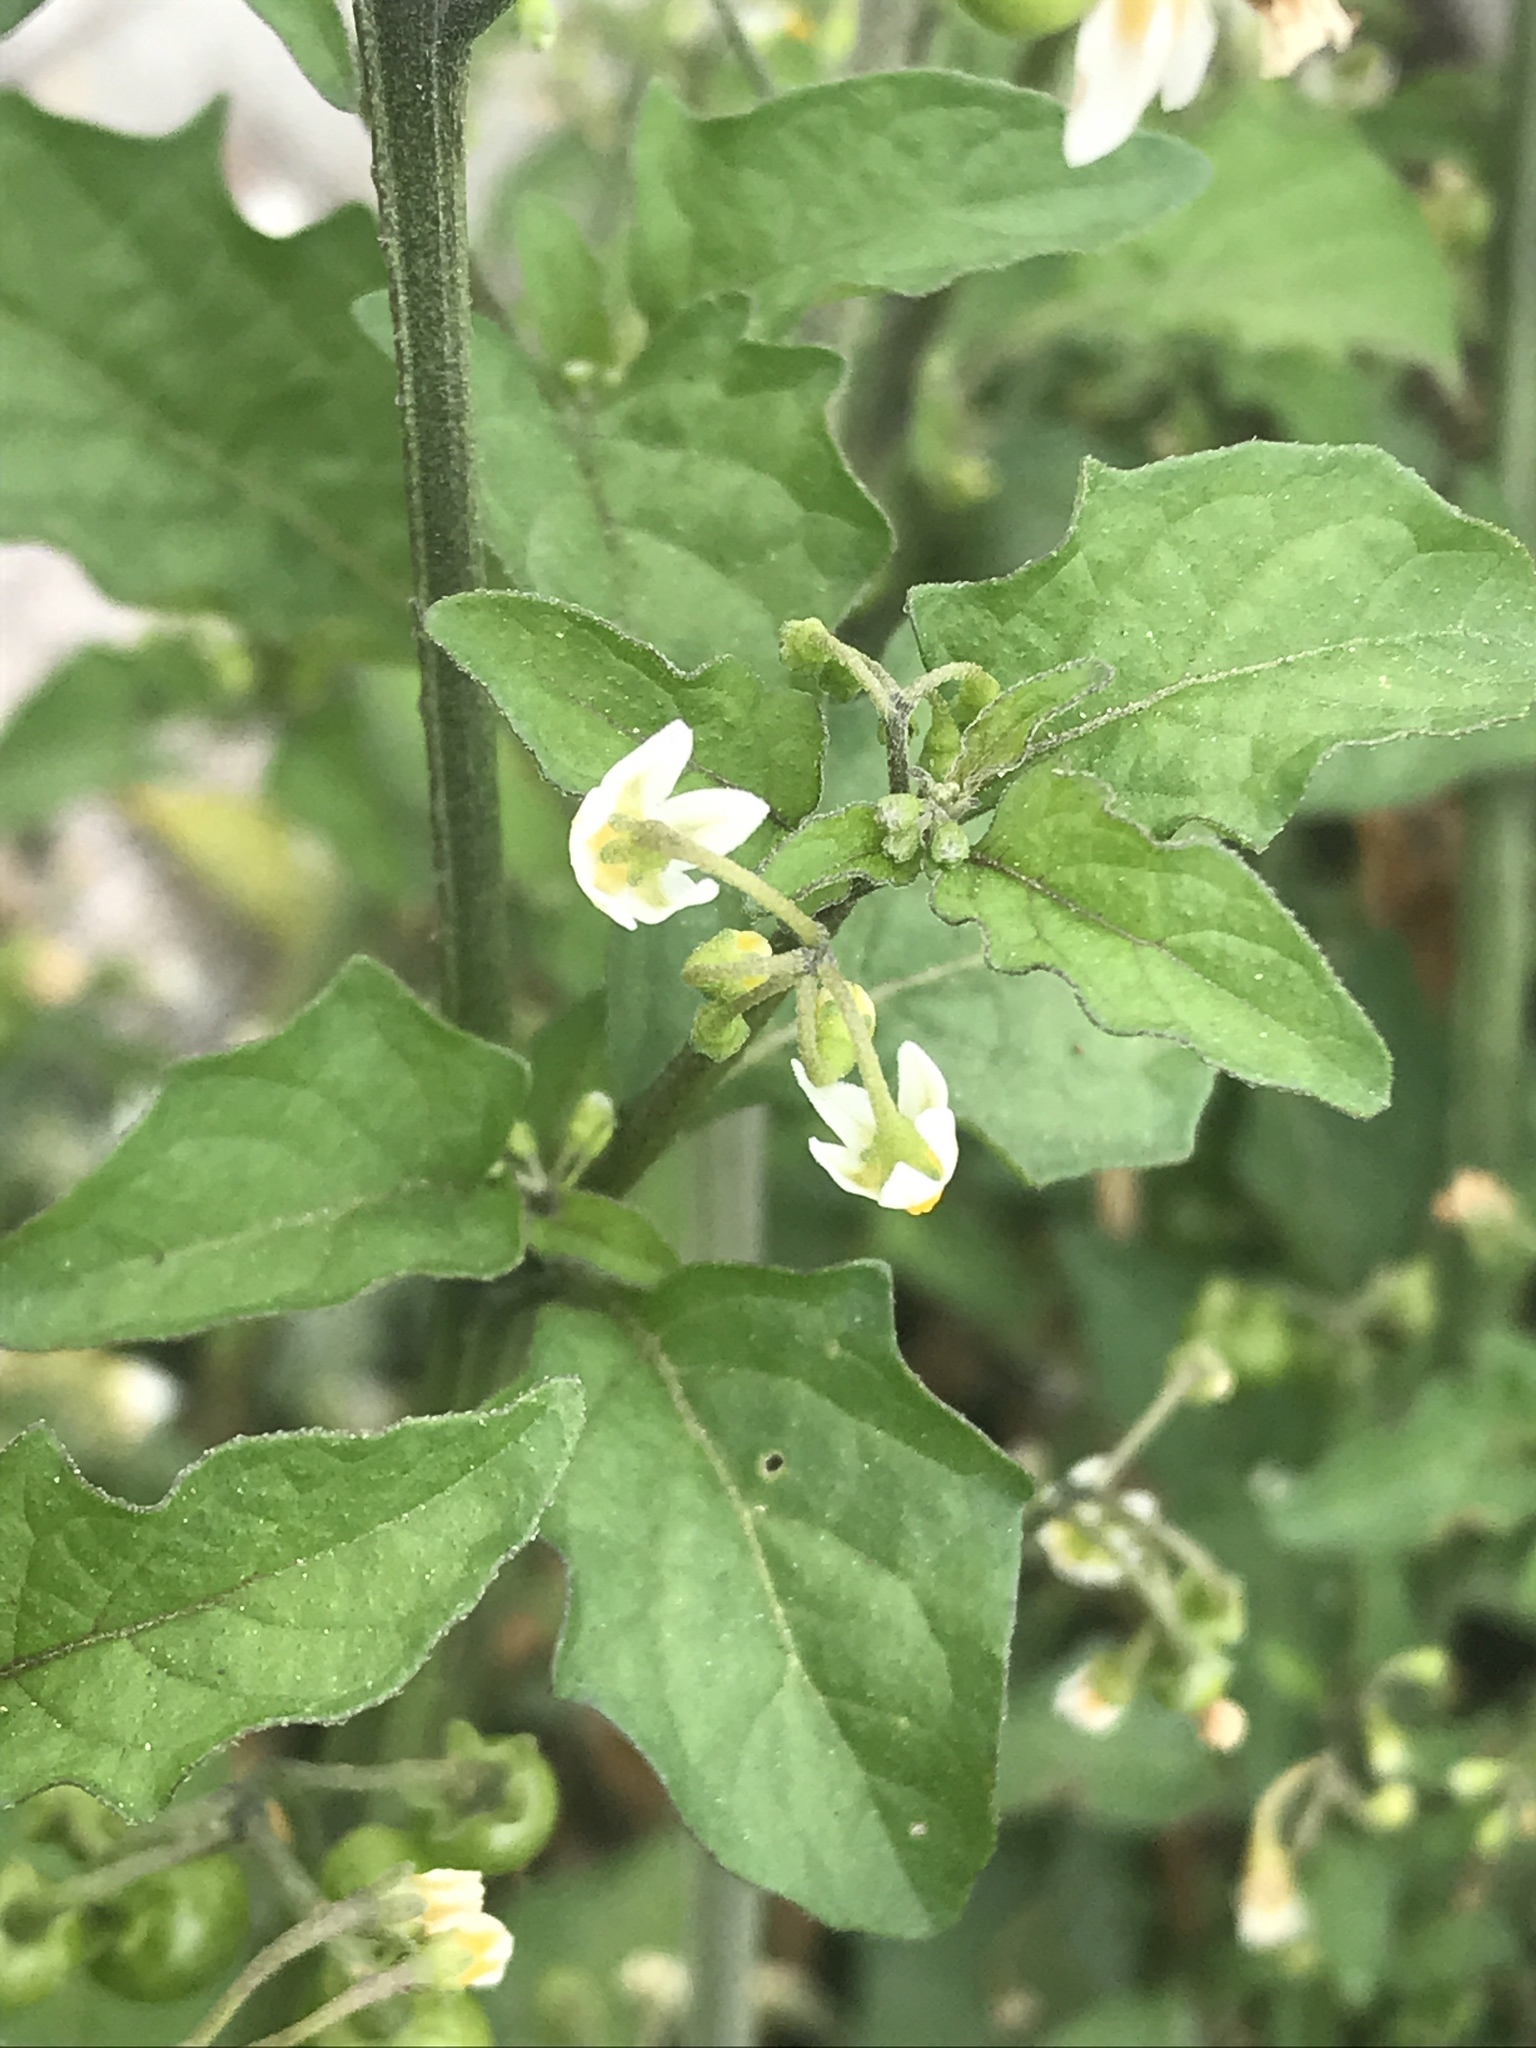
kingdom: Plantae
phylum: Tracheophyta
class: Magnoliopsida
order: Solanales
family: Solanaceae
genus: Solanum
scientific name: Solanum nigrum
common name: Black nightshade
